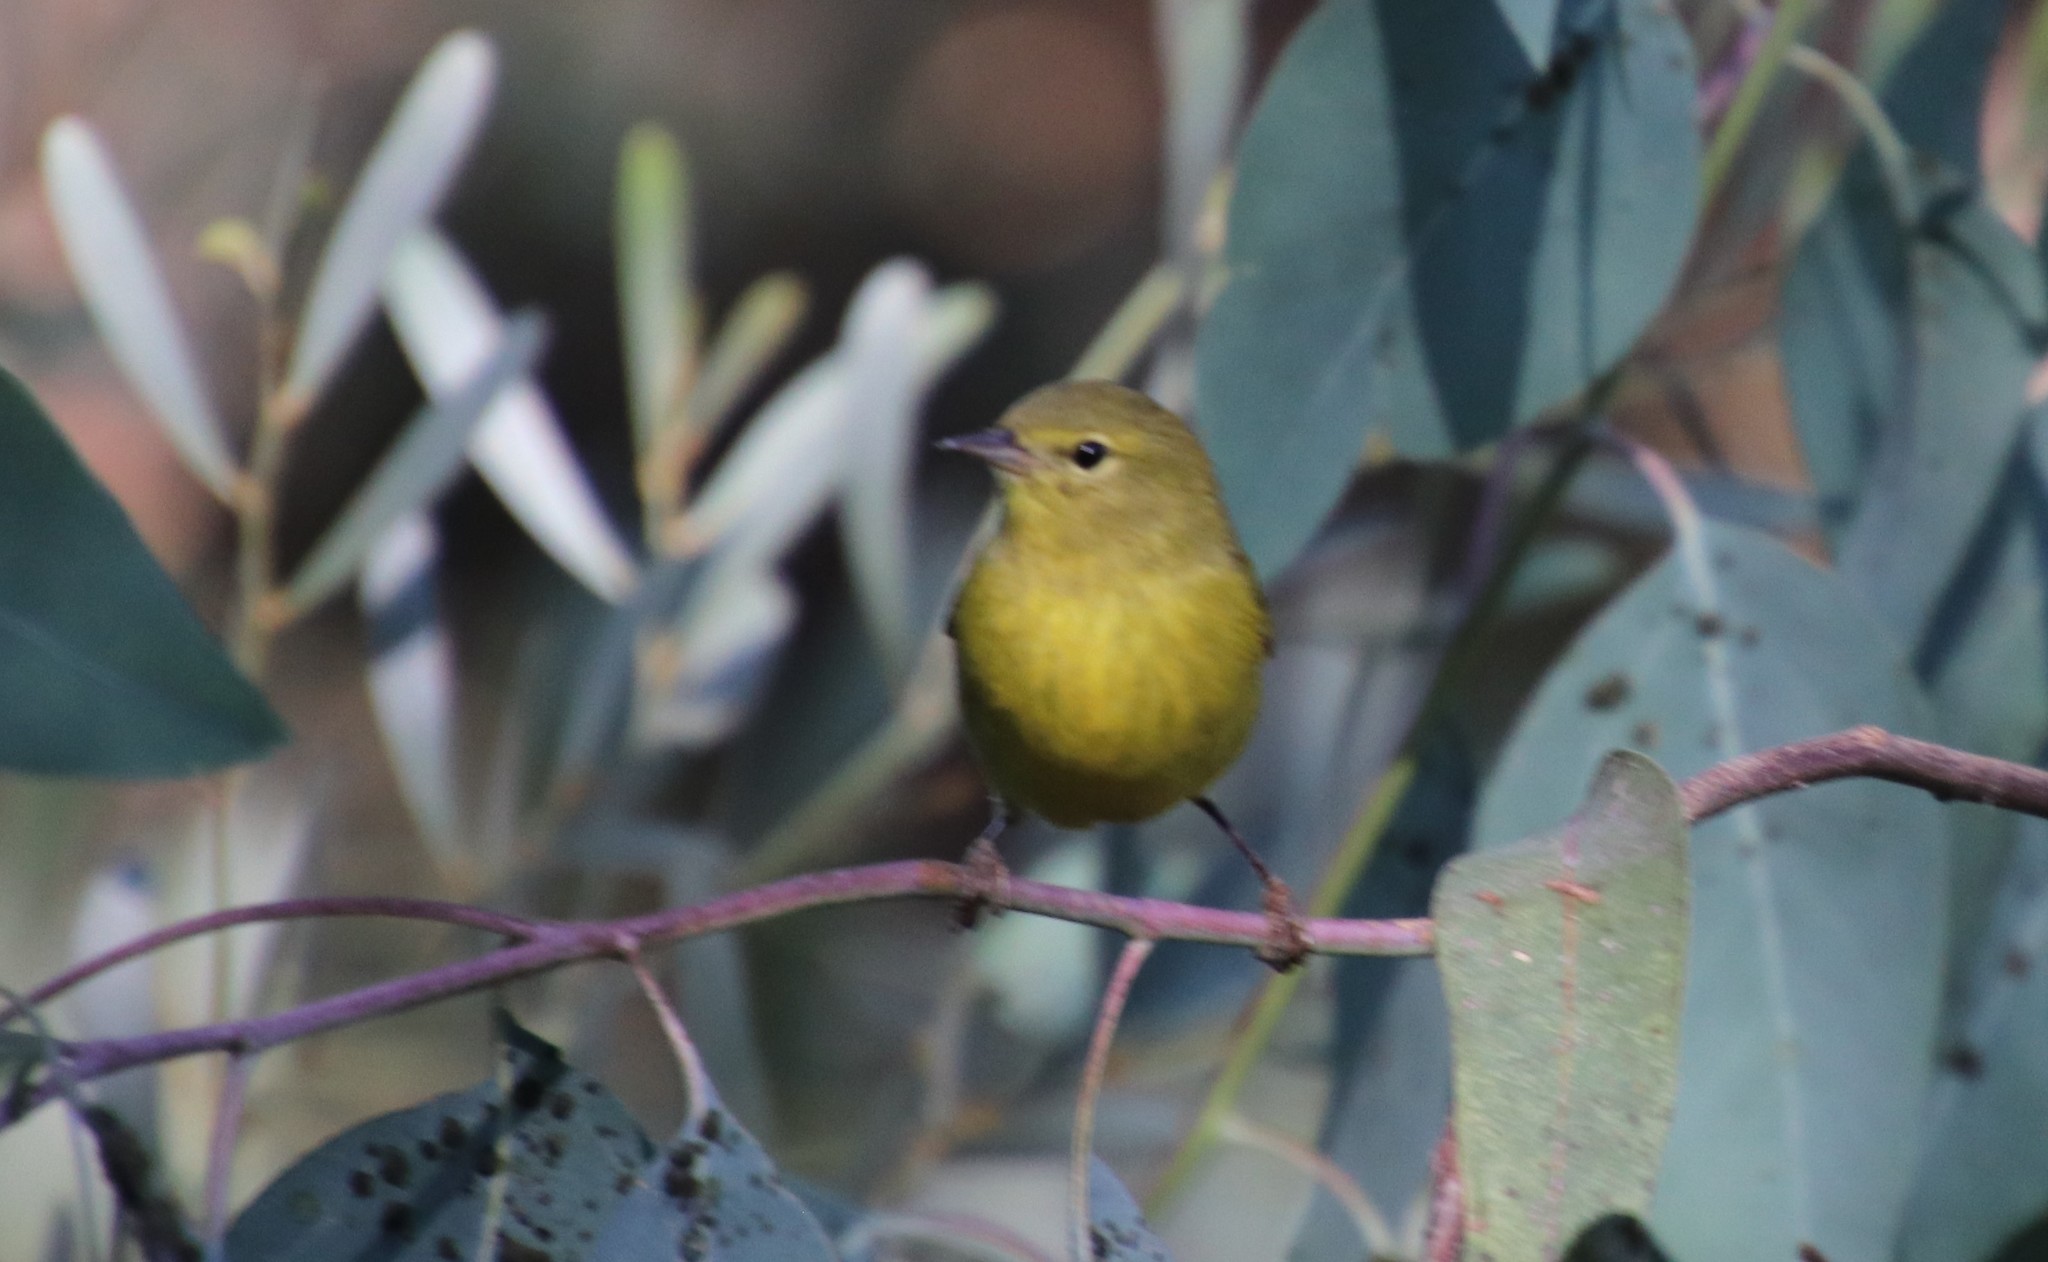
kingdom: Animalia
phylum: Chordata
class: Aves
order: Passeriformes
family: Parulidae
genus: Leiothlypis
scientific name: Leiothlypis celata
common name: Orange-crowned warbler
